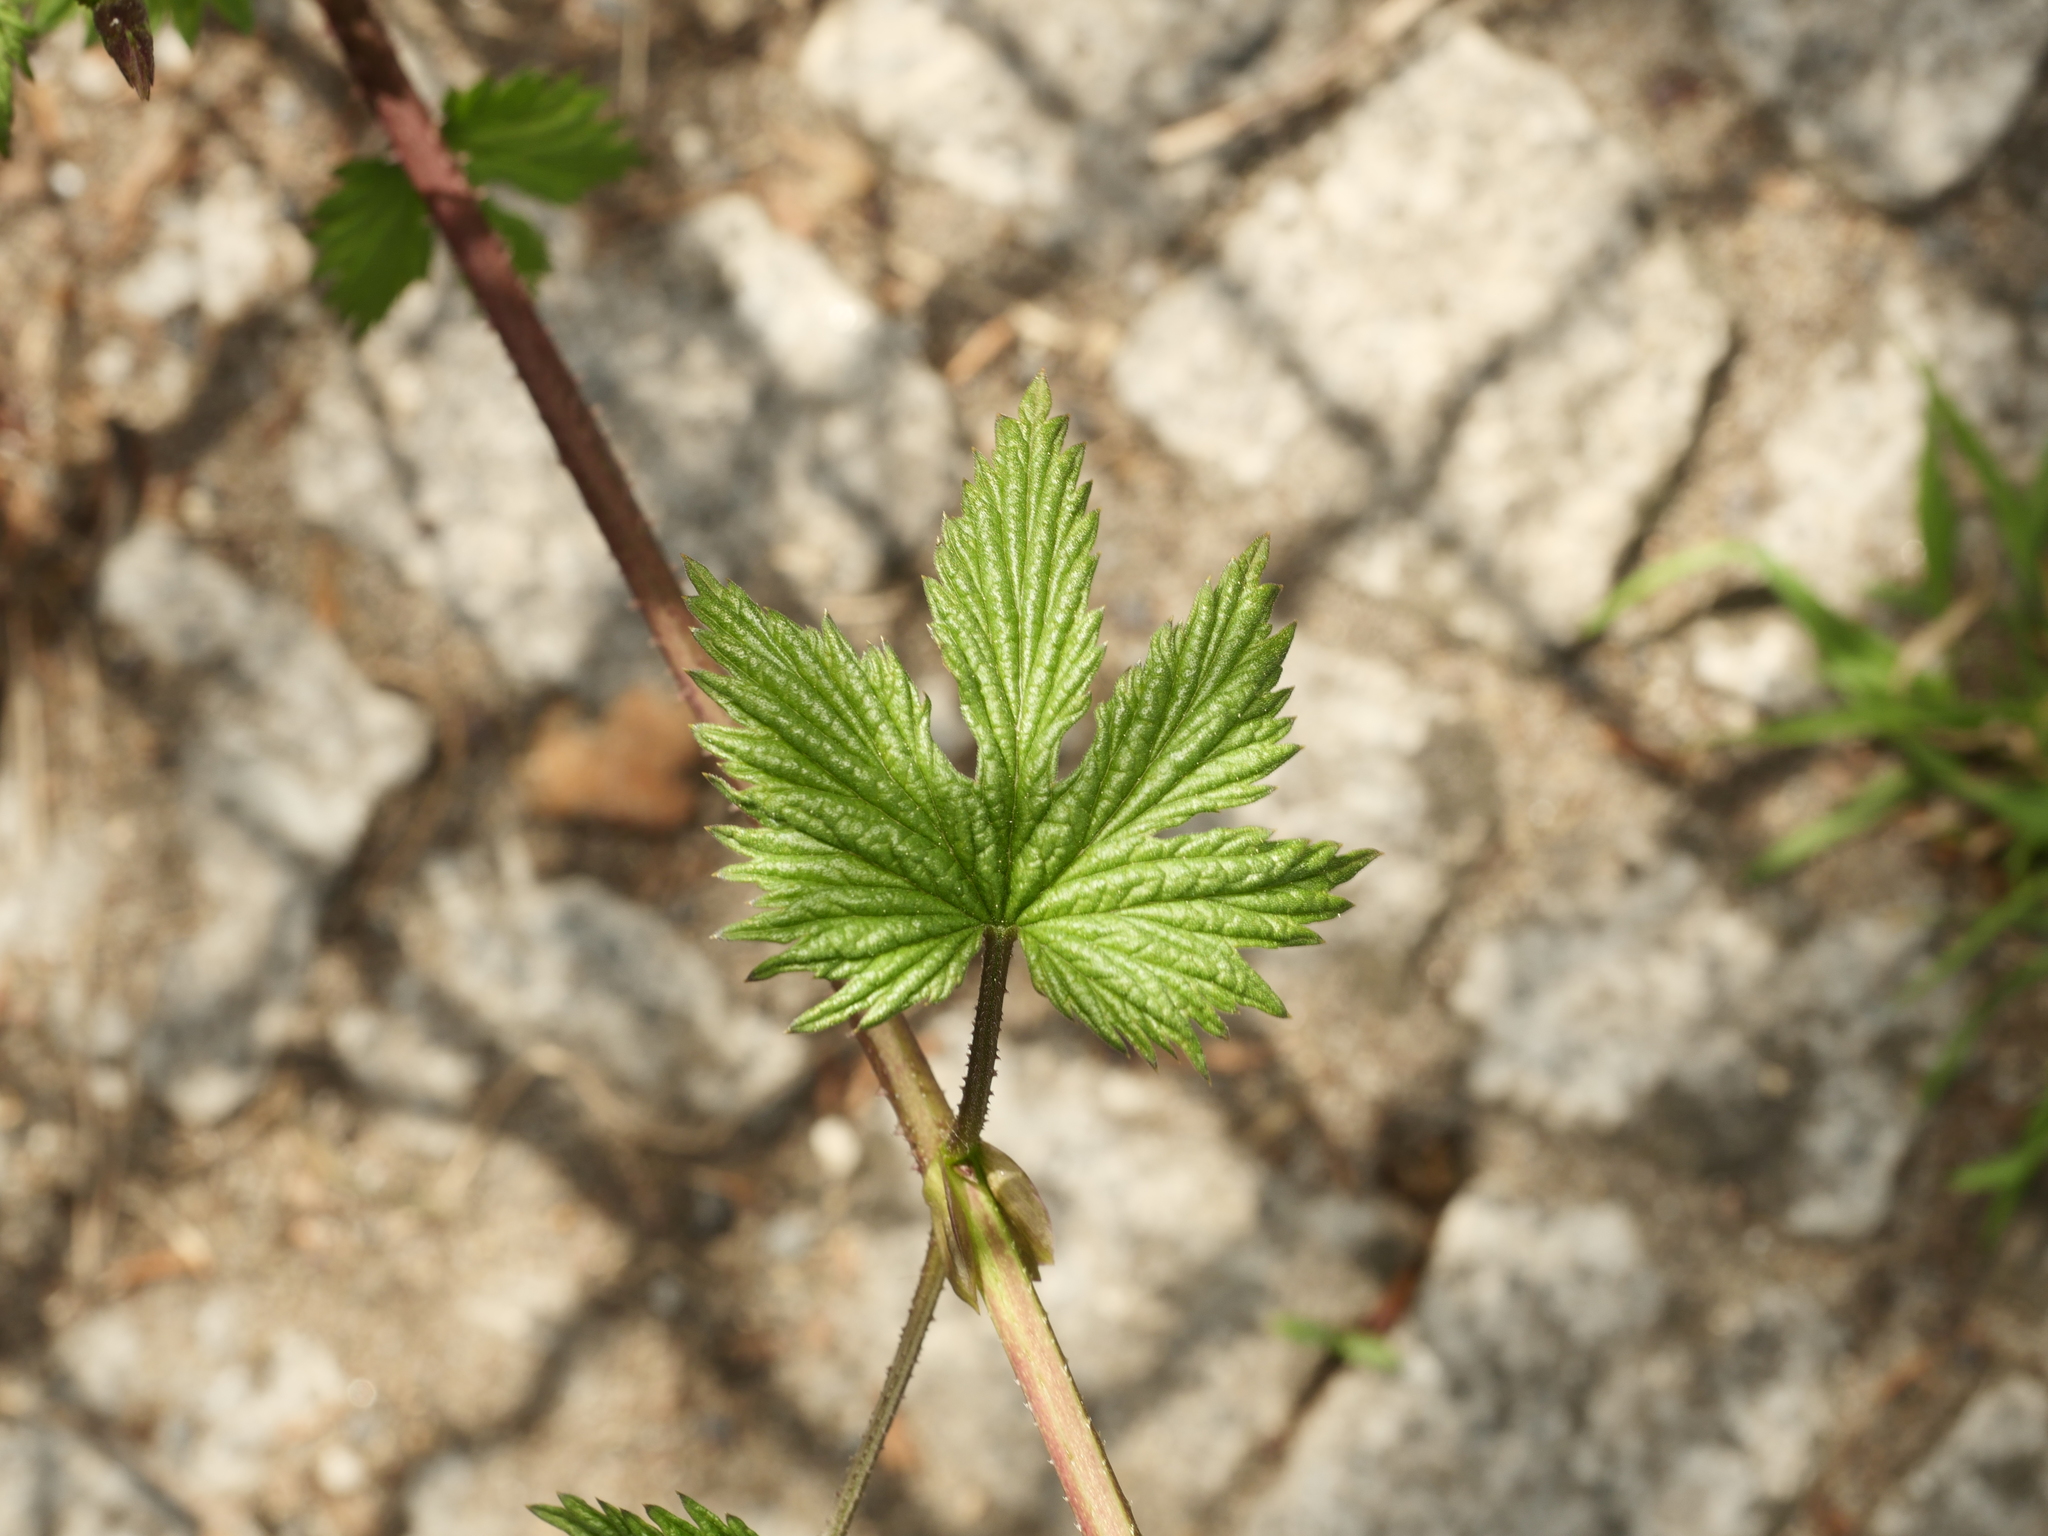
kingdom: Plantae
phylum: Tracheophyta
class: Magnoliopsida
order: Rosales
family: Cannabaceae
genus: Humulus
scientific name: Humulus lupulus
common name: Hop
